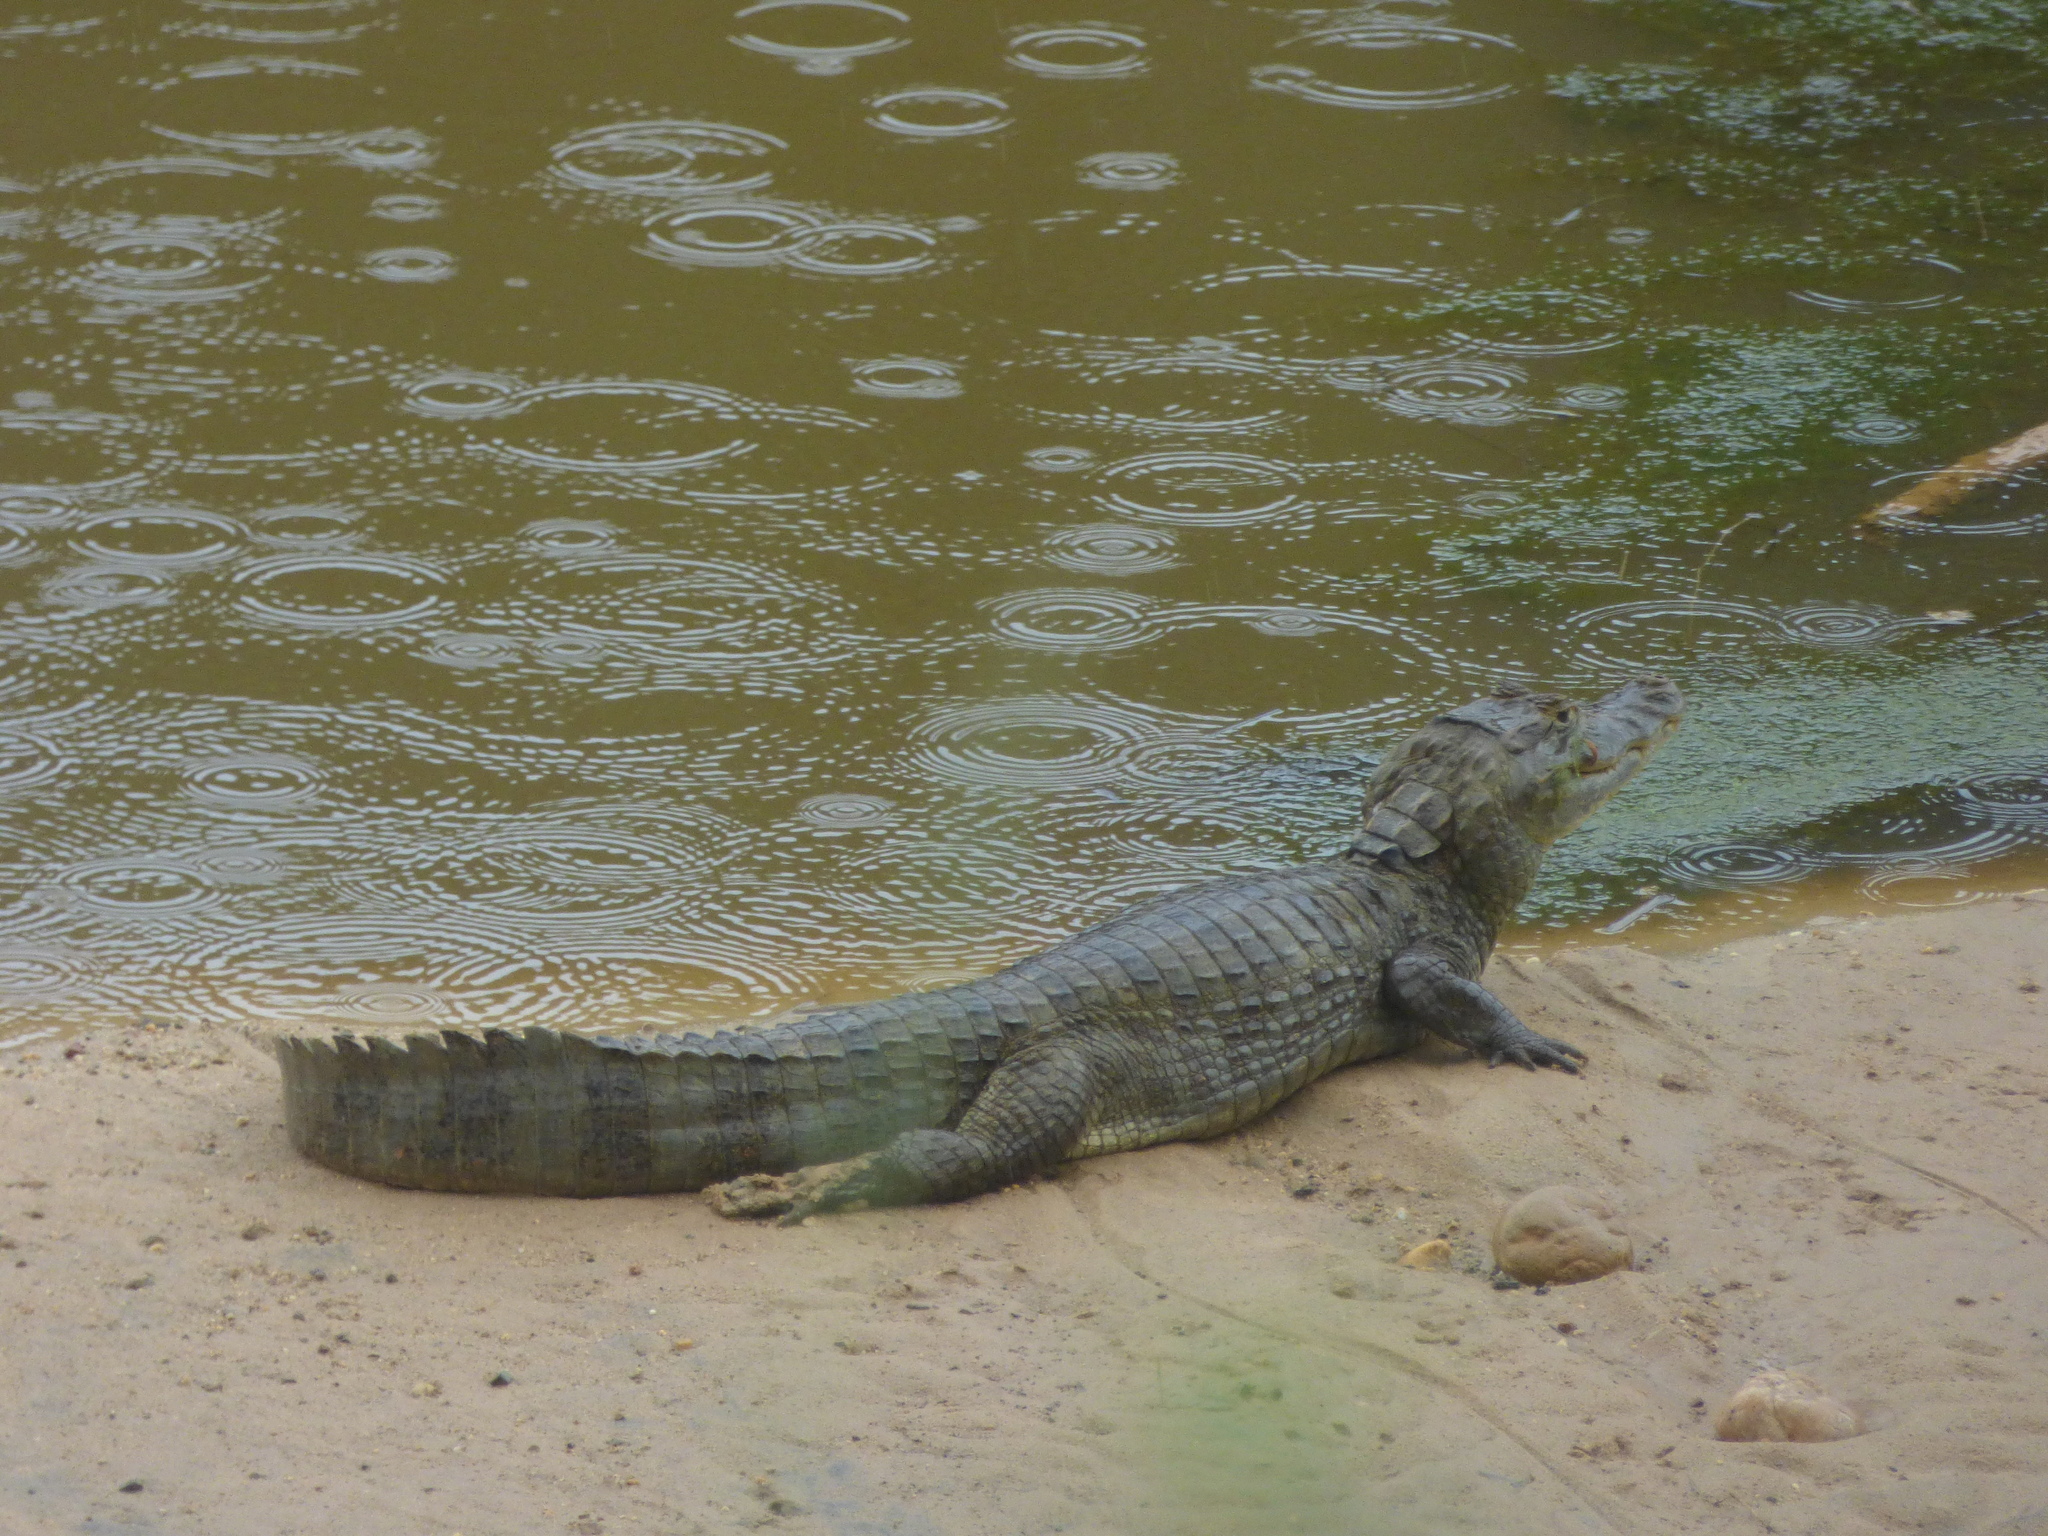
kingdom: Animalia
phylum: Chordata
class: Crocodylia
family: Alligatoridae
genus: Caiman
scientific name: Caiman crocodilus
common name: Common caiman
